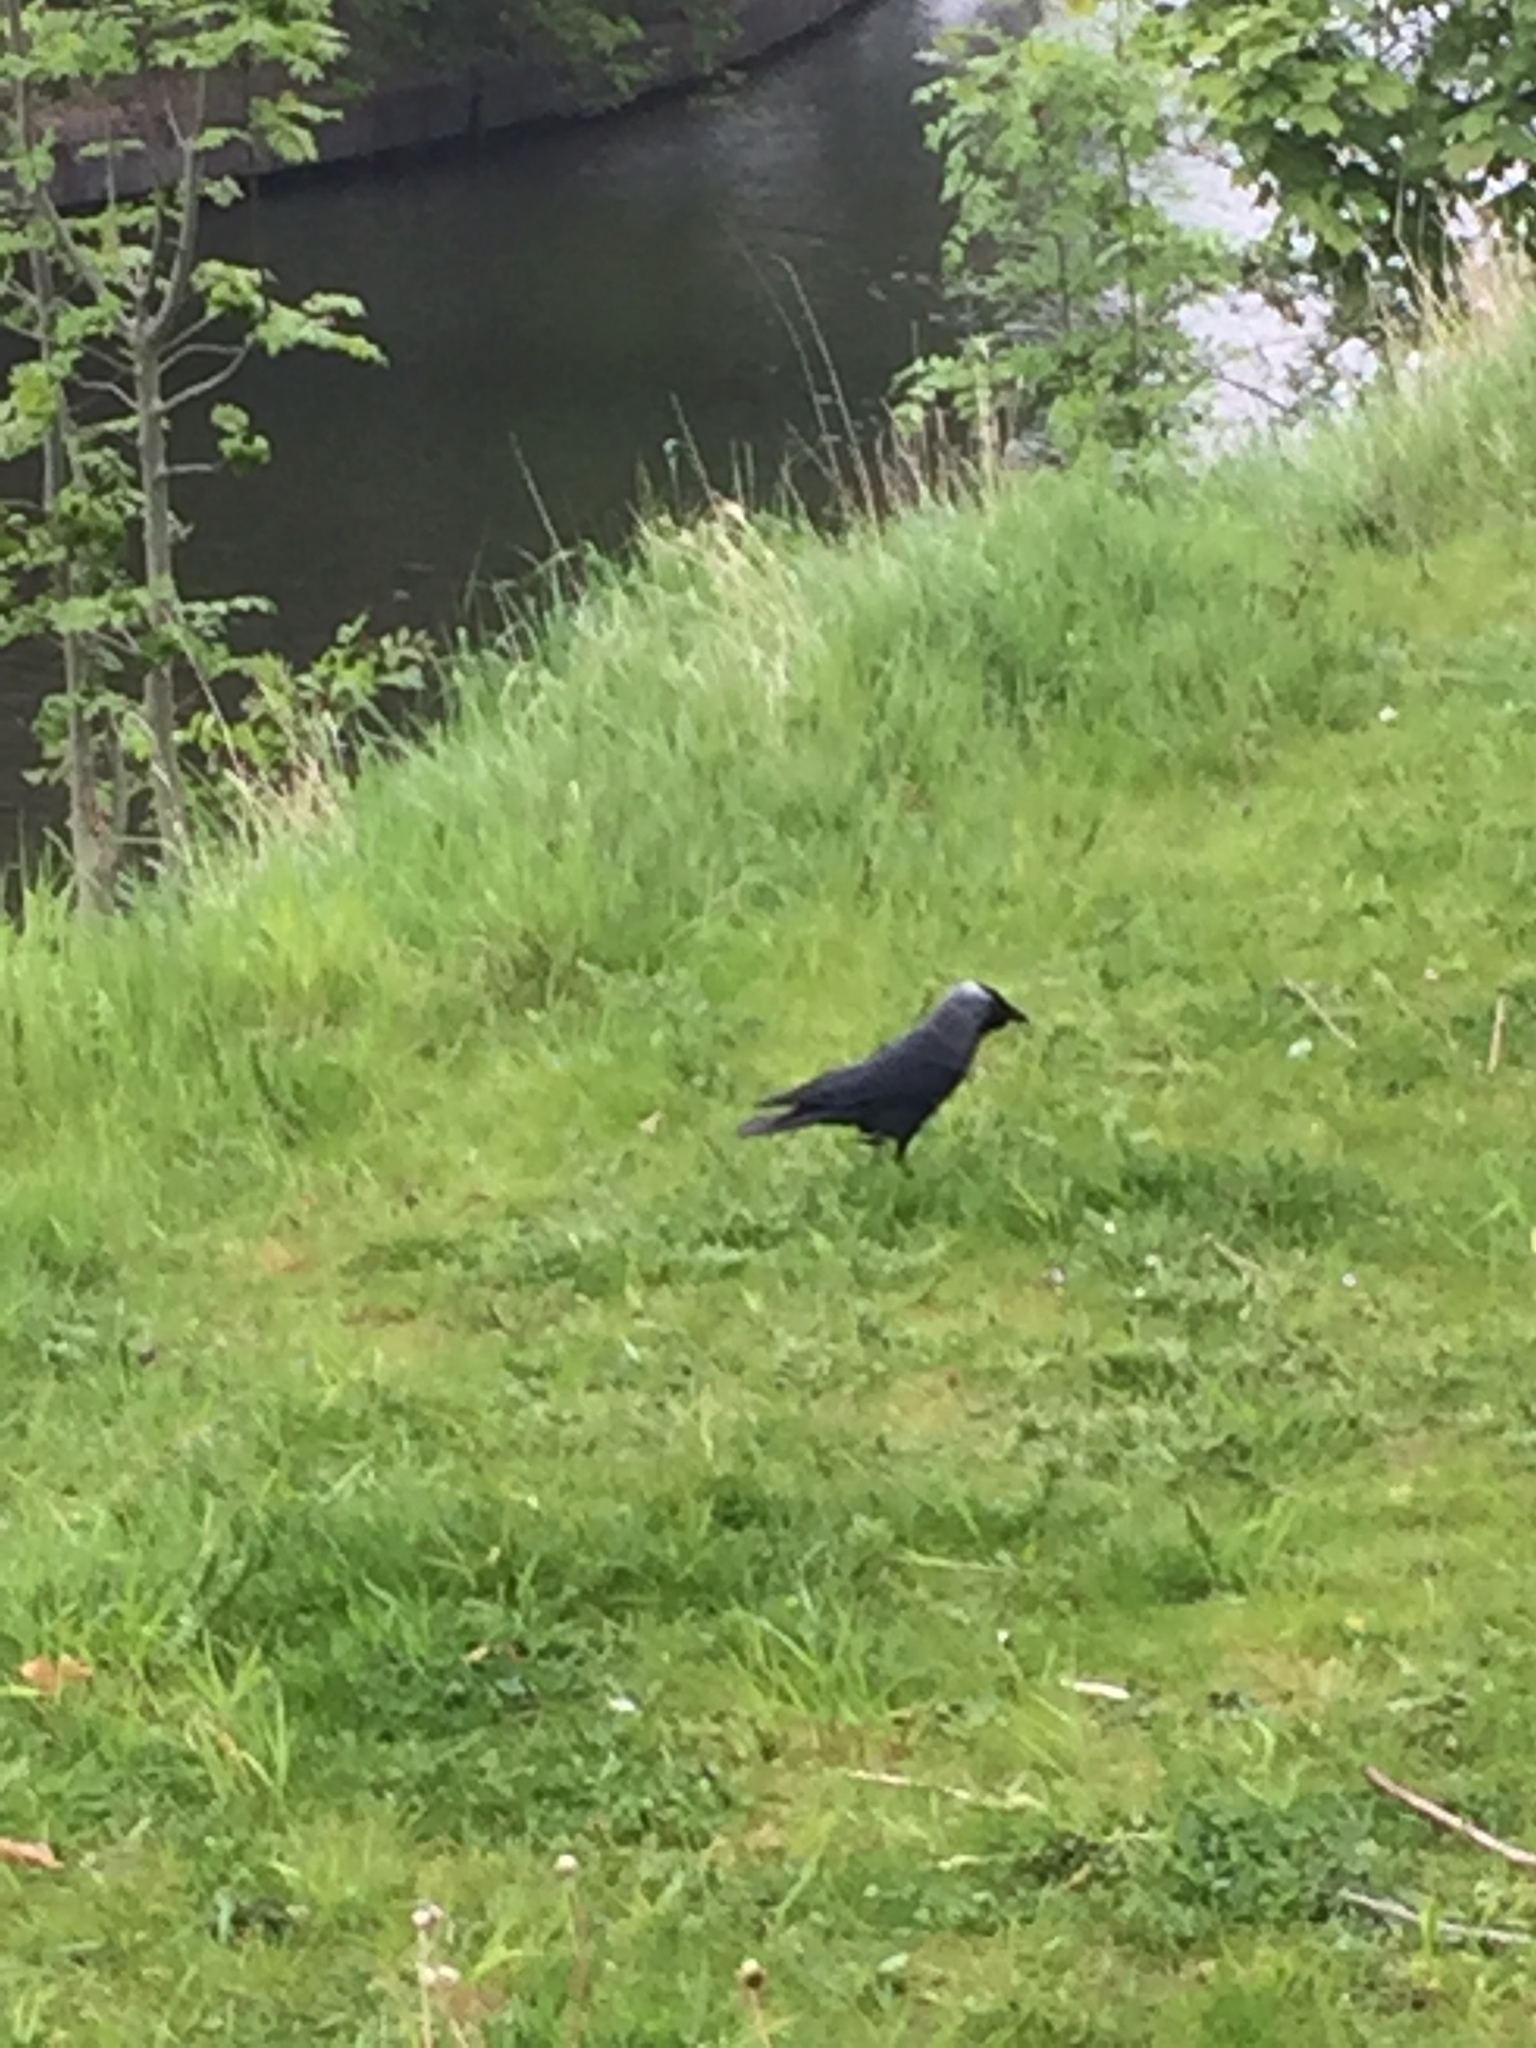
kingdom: Animalia
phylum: Chordata
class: Aves
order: Passeriformes
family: Corvidae
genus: Coloeus
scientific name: Coloeus monedula
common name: Western jackdaw
